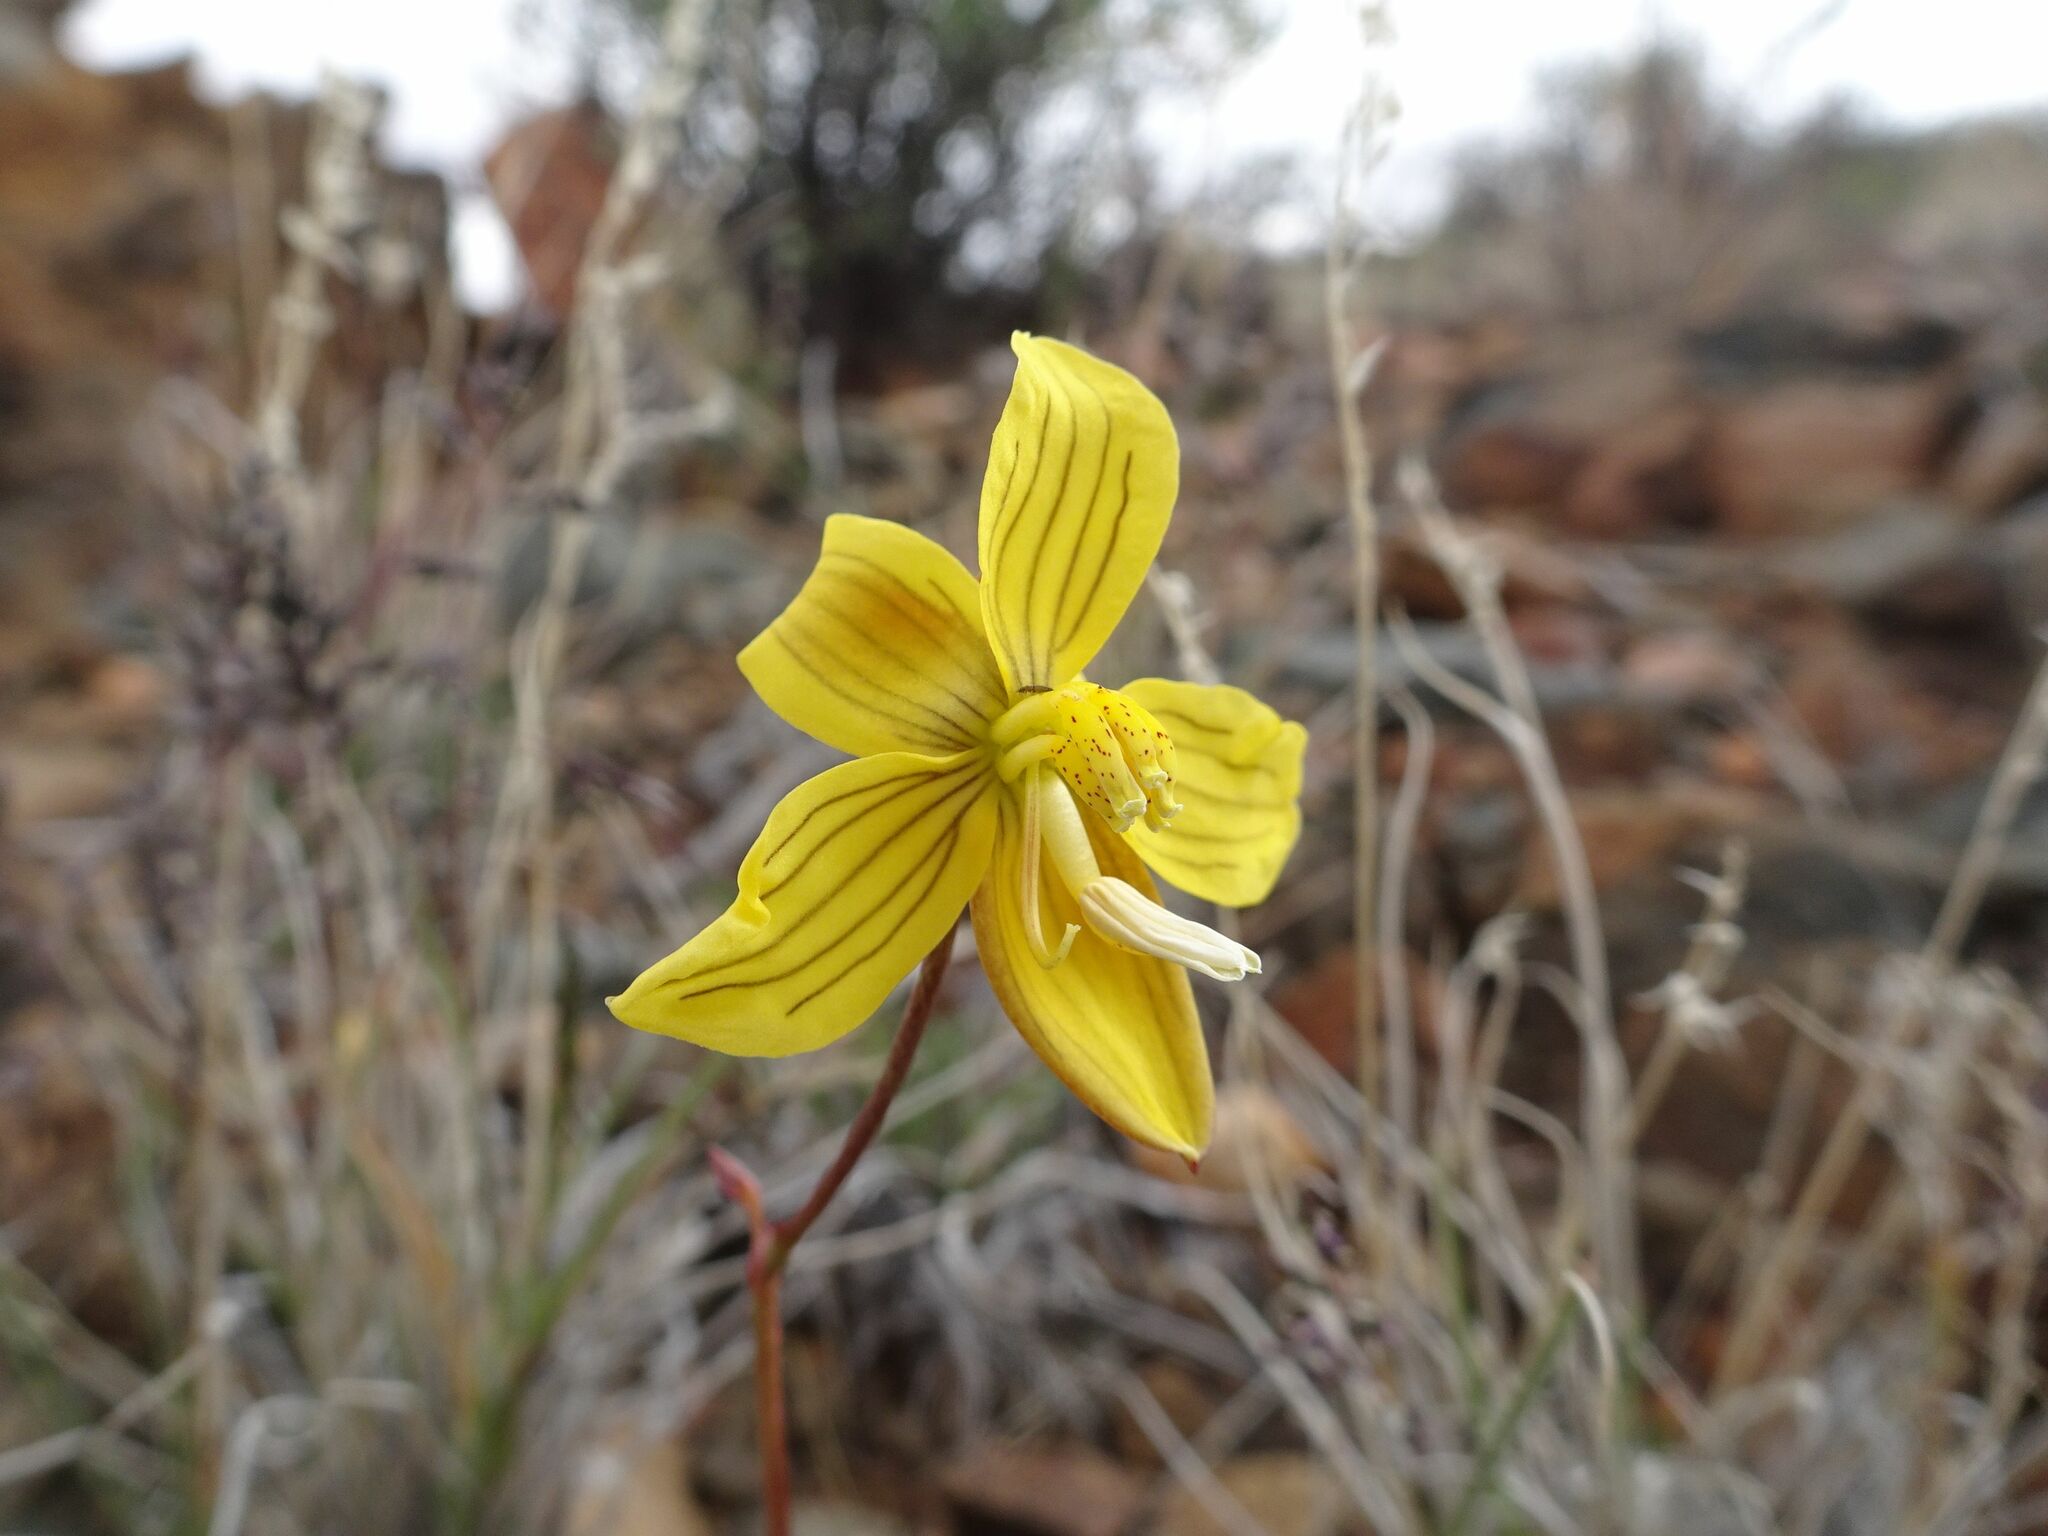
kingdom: Plantae
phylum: Tracheophyta
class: Liliopsida
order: Asparagales
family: Tecophilaeaceae
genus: Cyanella
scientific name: Cyanella lutea
